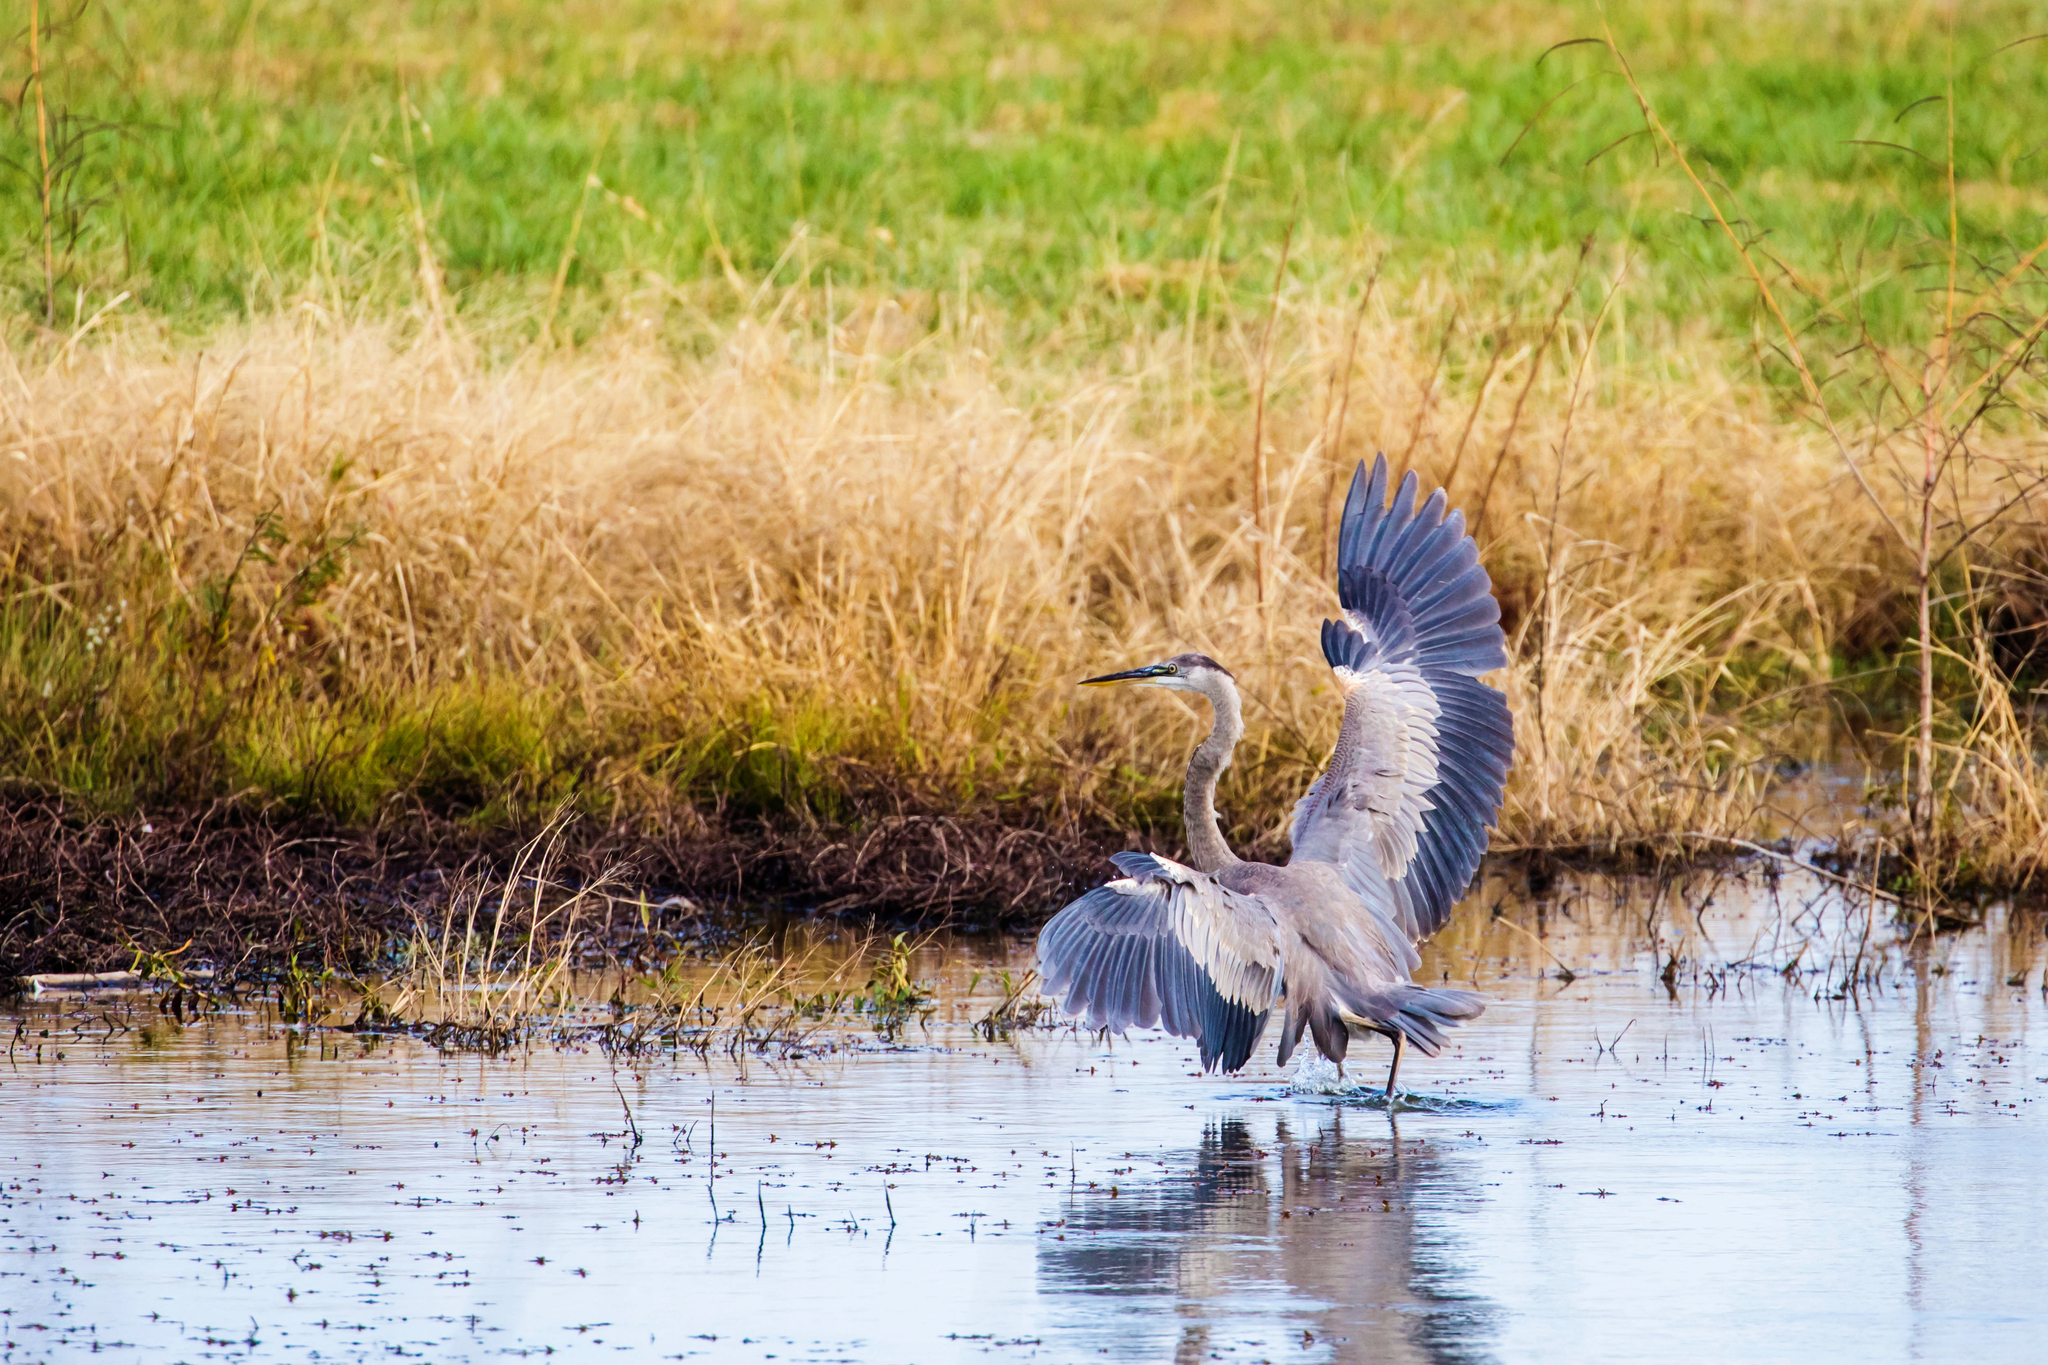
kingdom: Animalia
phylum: Chordata
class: Aves
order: Pelecaniformes
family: Ardeidae
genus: Ardea
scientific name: Ardea herodias
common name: Great blue heron
